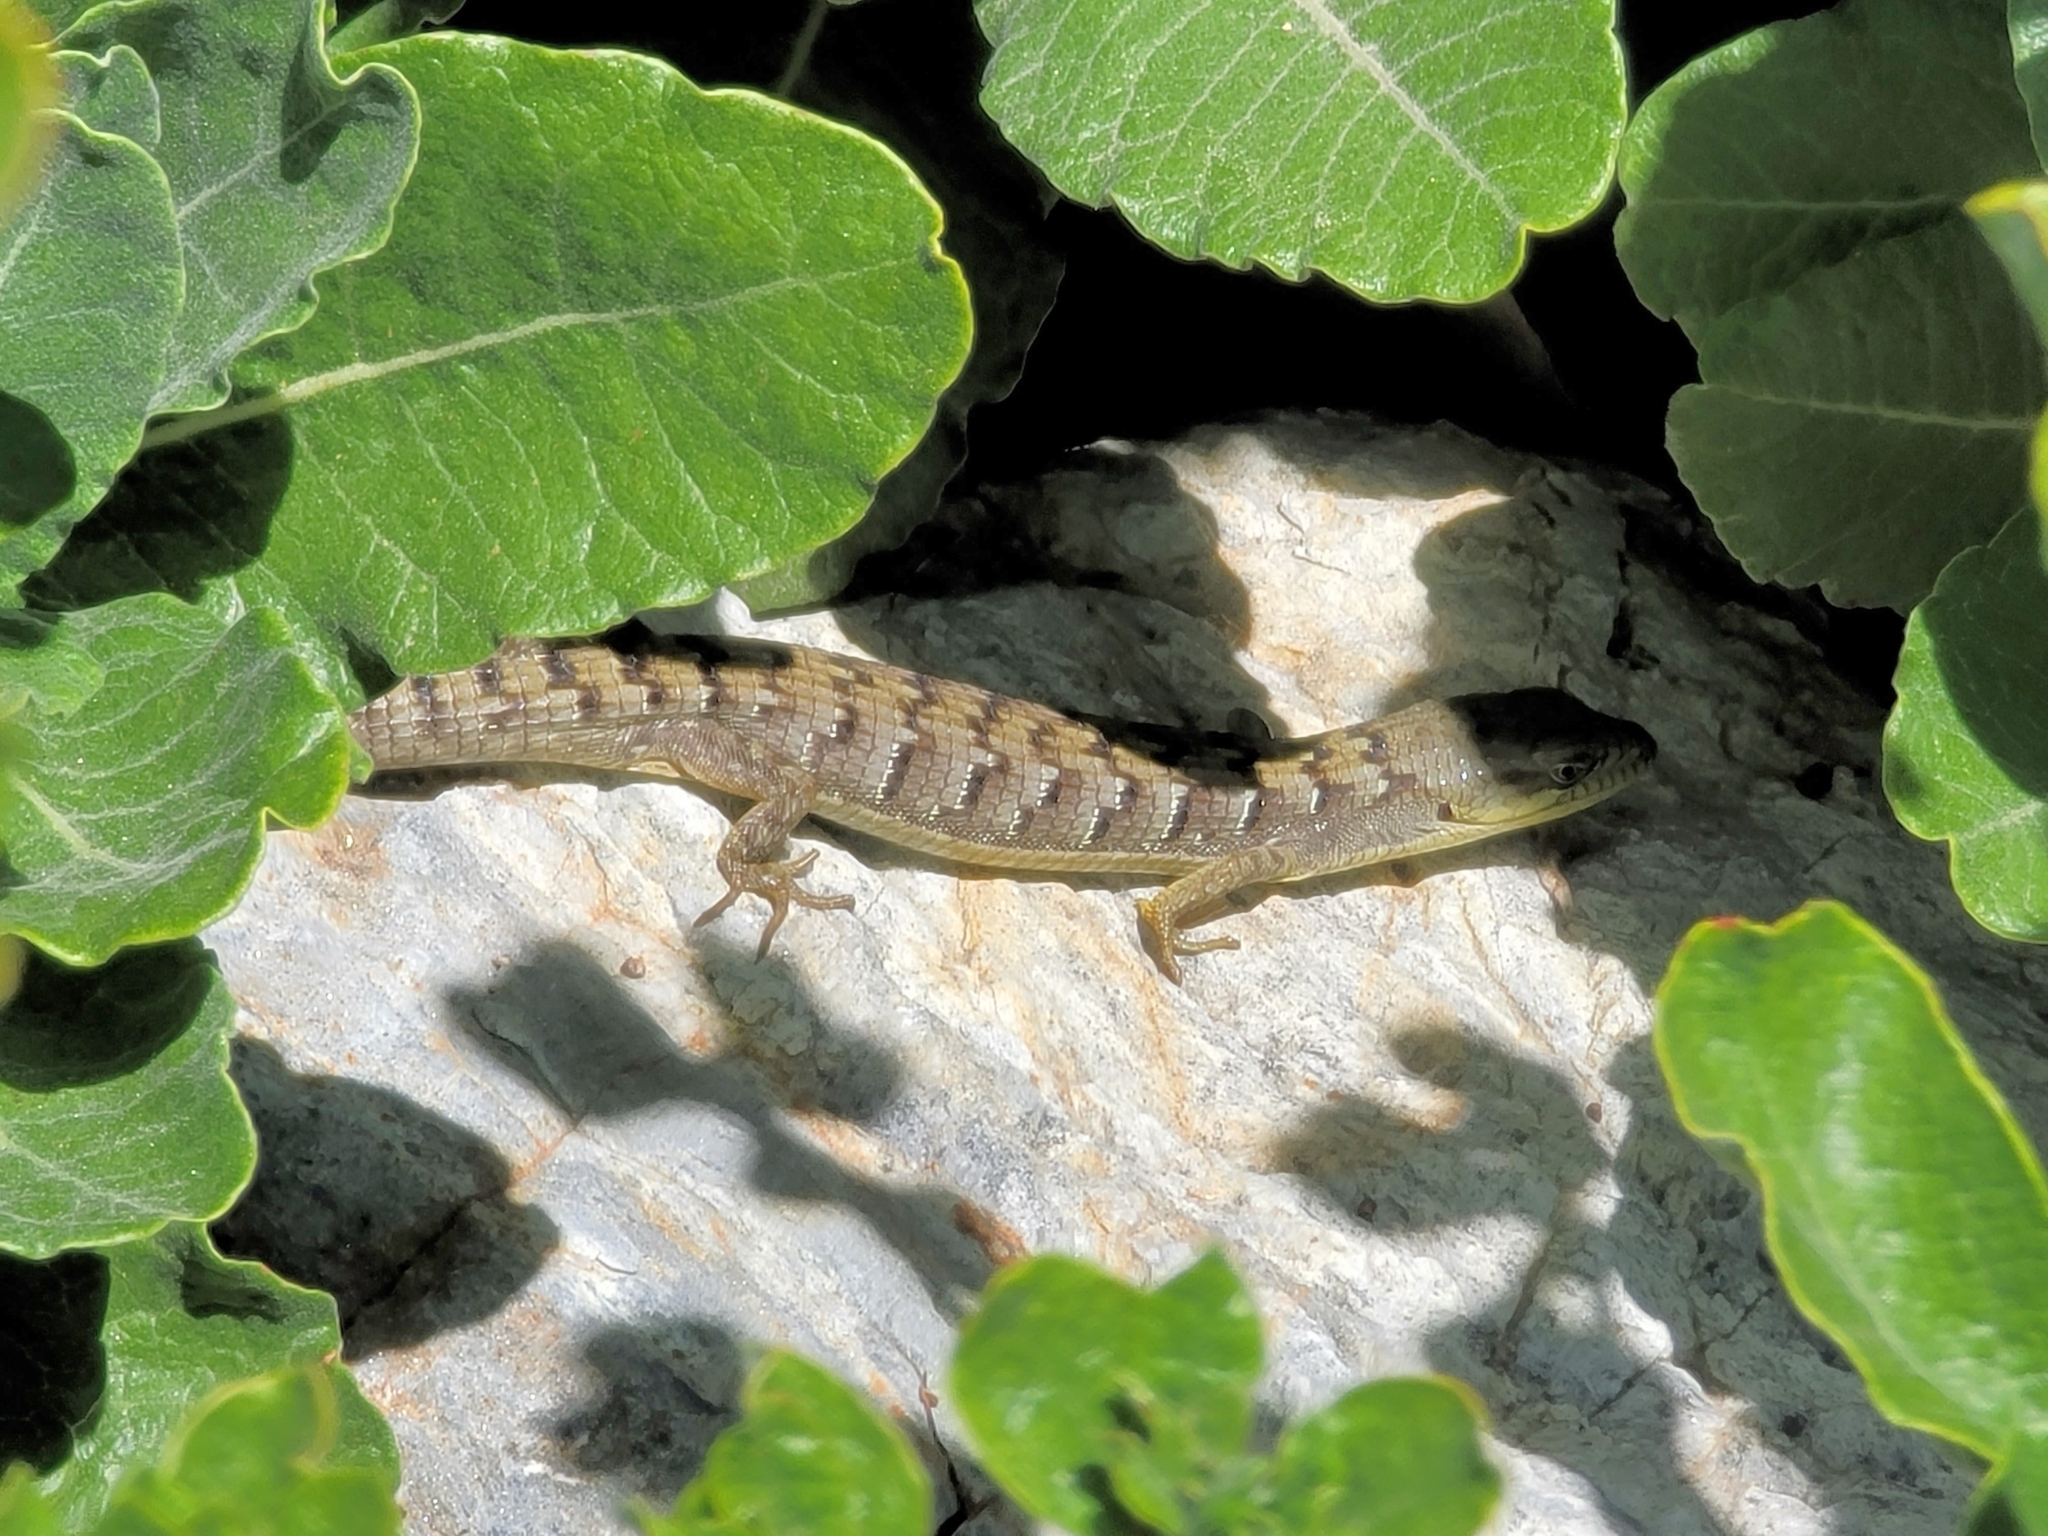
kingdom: Animalia
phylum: Chordata
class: Squamata
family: Anguidae
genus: Elgaria
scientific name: Elgaria multicarinata
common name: Southern alligator lizard
